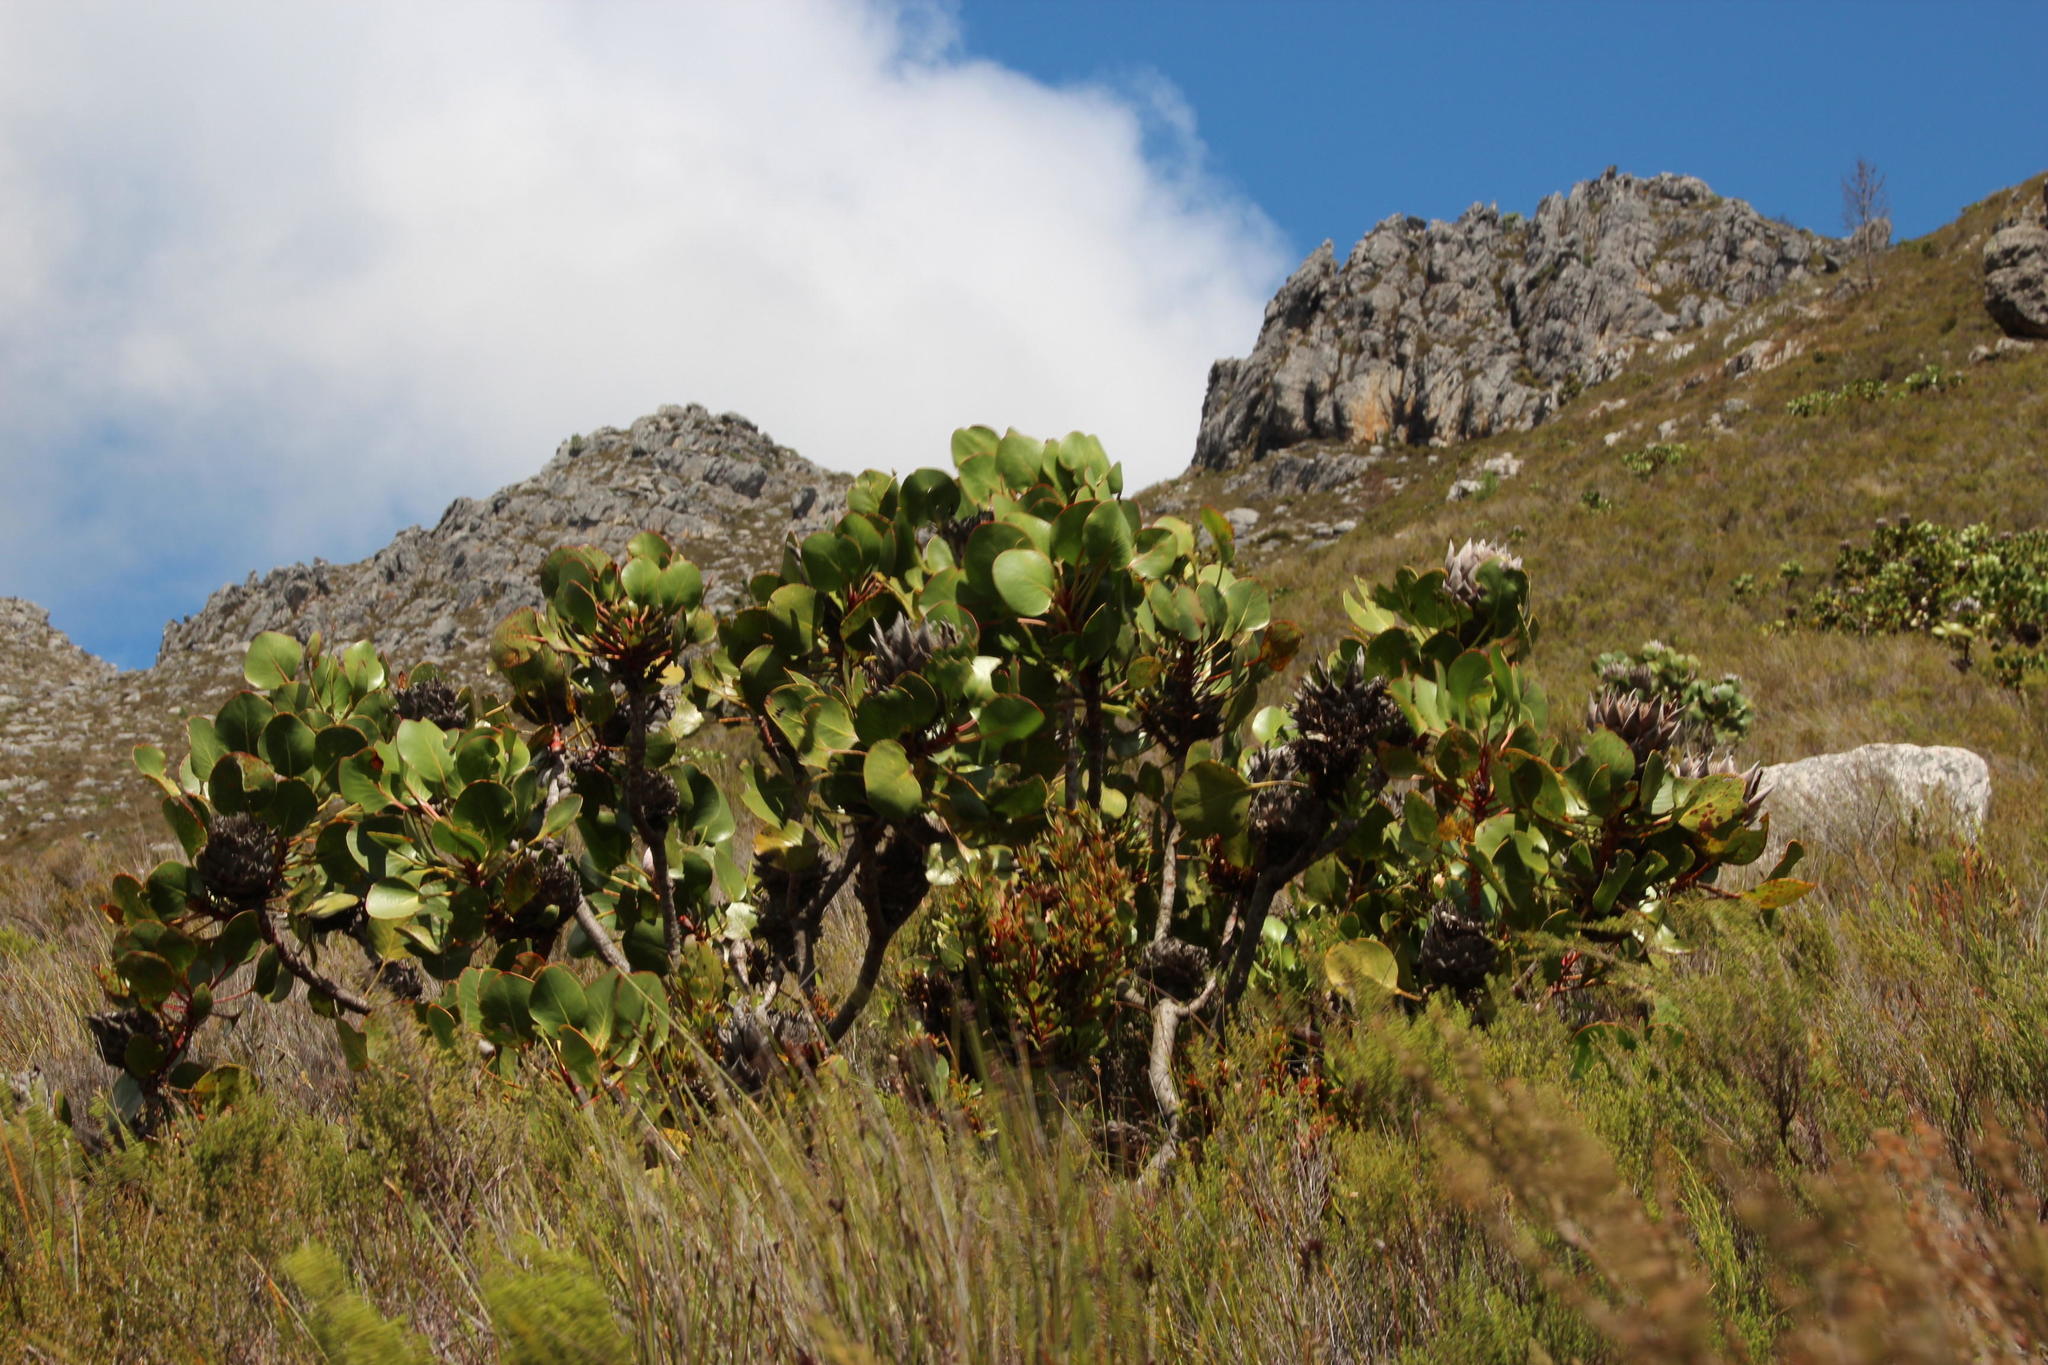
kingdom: Plantae
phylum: Tracheophyta
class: Magnoliopsida
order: Proteales
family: Proteaceae
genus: Protea
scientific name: Protea cynaroides
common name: King protea
